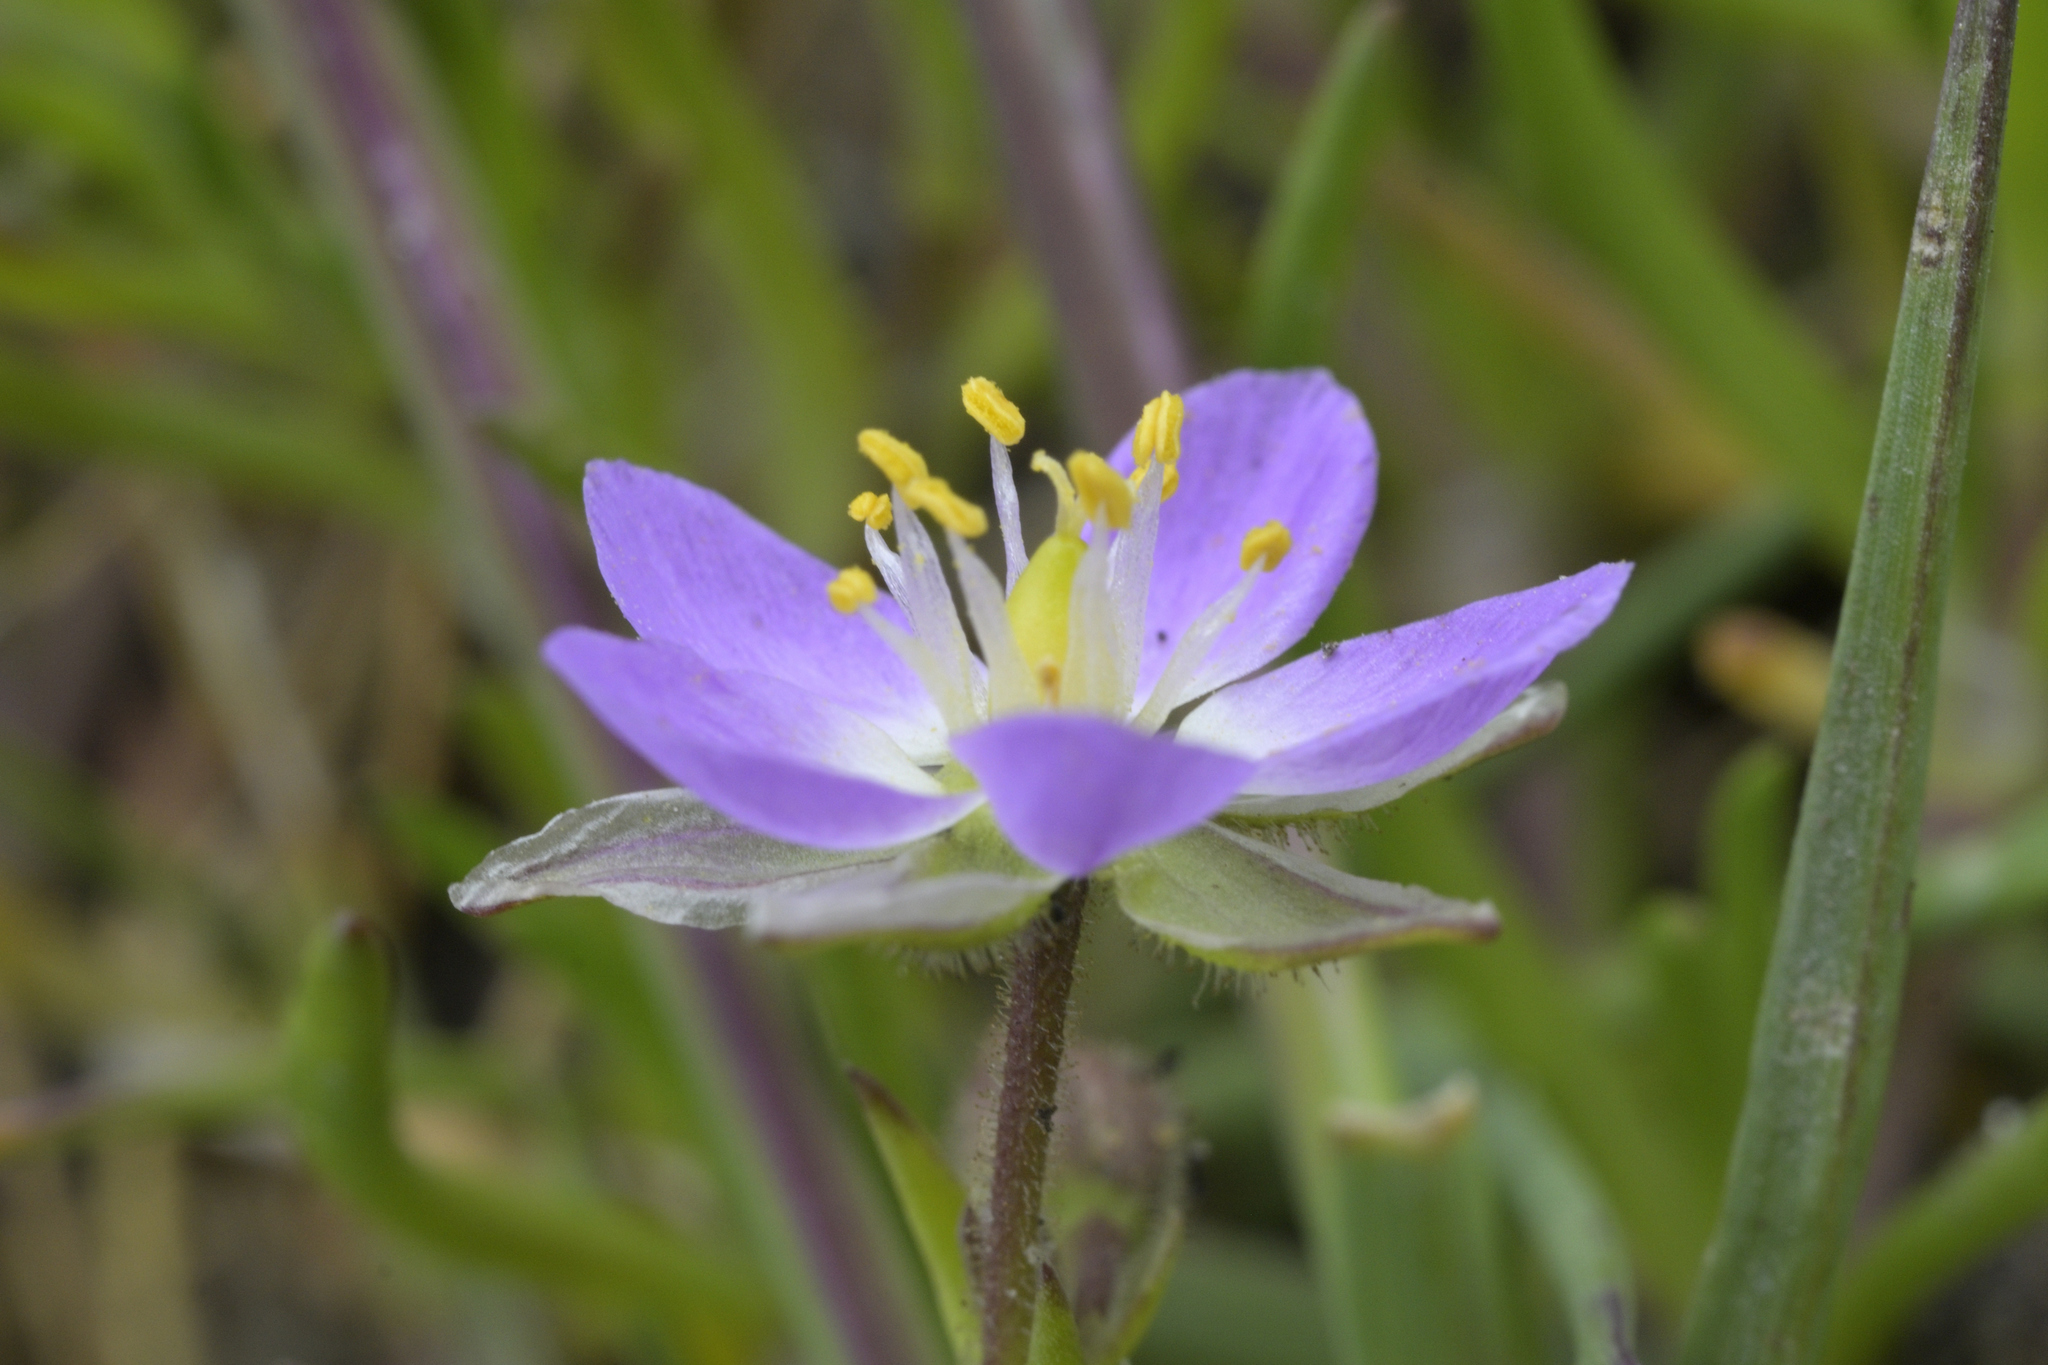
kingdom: Plantae
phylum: Tracheophyta
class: Magnoliopsida
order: Caryophyllales
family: Caryophyllaceae
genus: Spergularia
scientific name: Spergularia marina
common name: Lesser sea-spurrey
